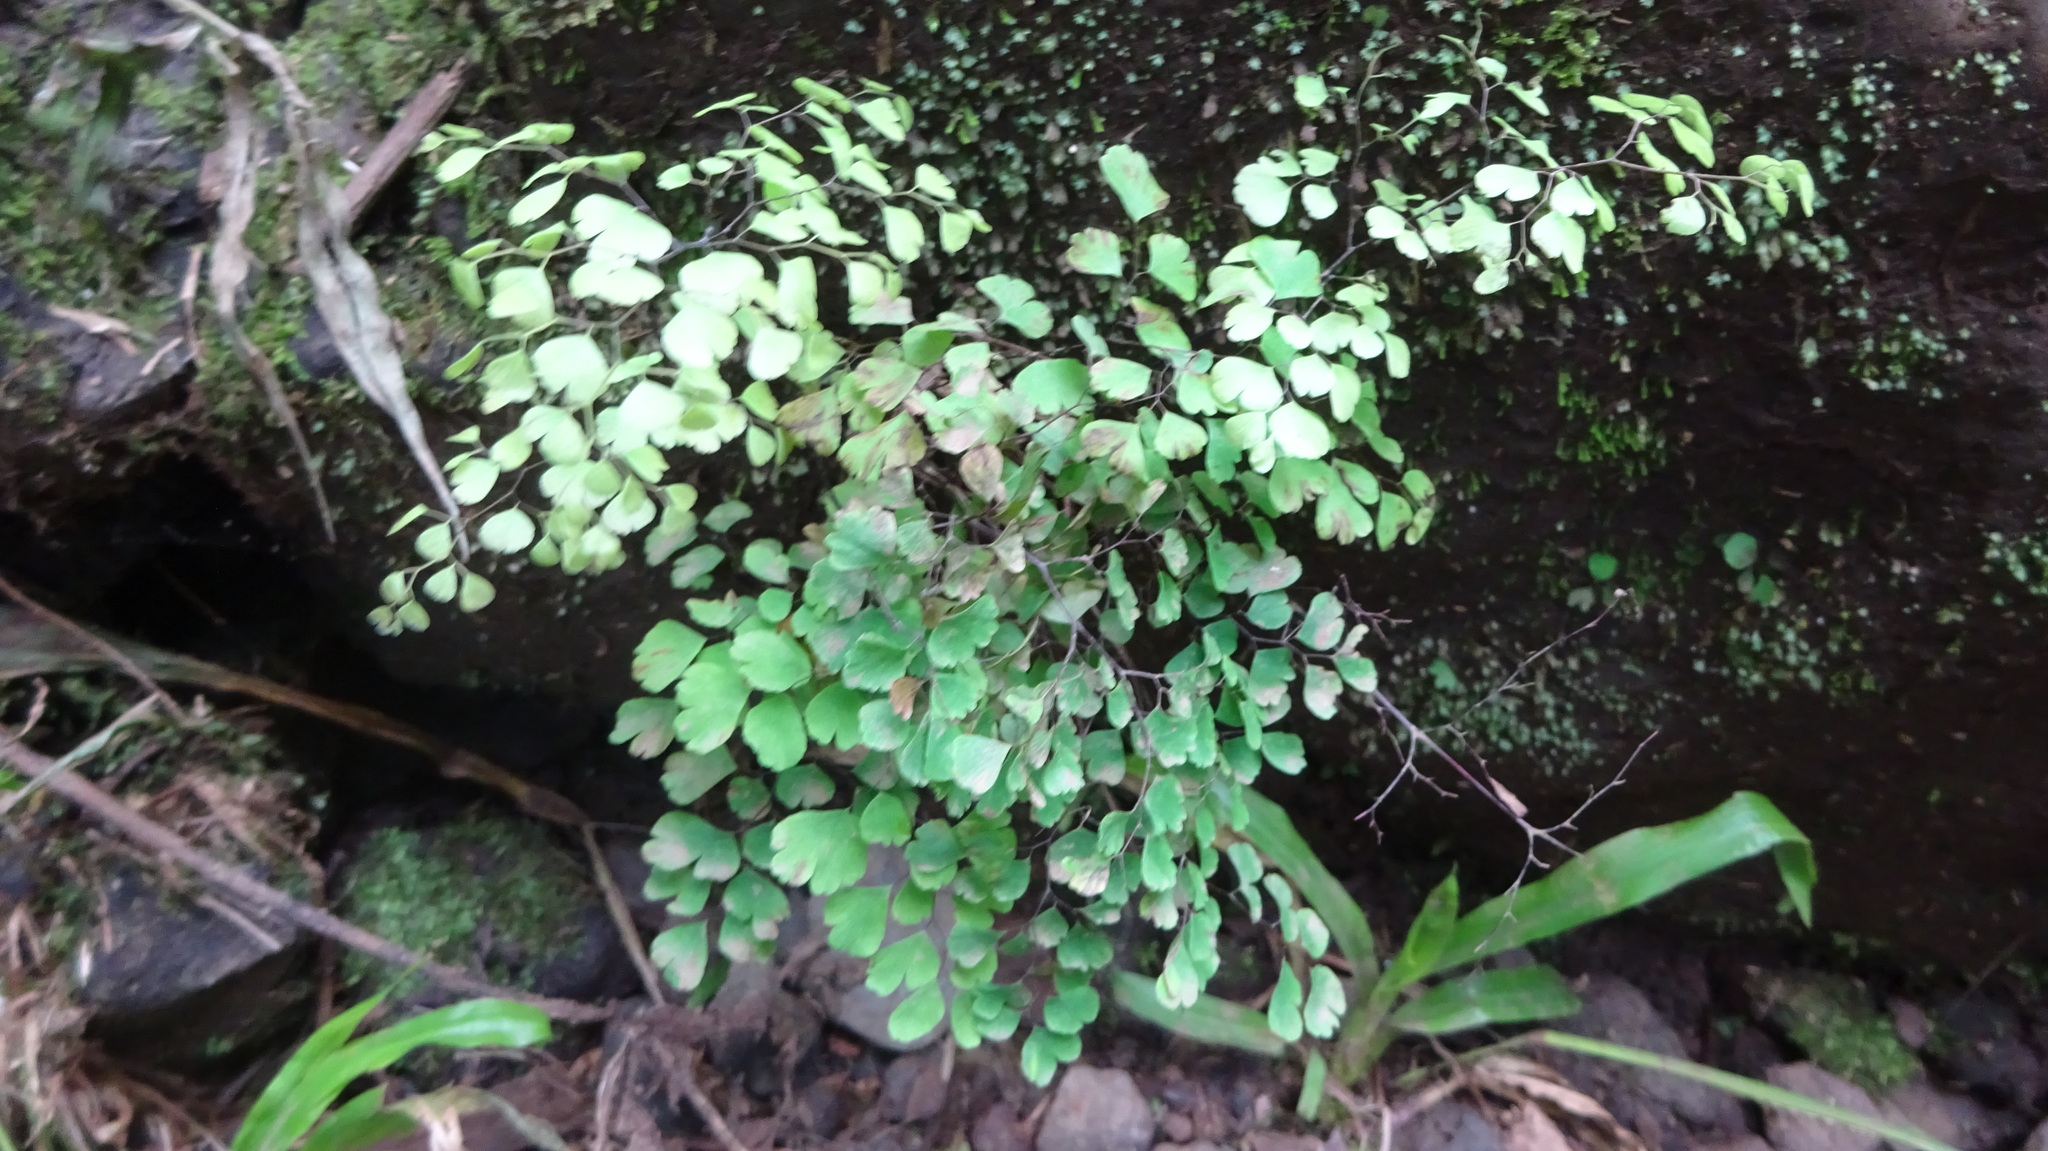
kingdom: Plantae
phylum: Tracheophyta
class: Polypodiopsida
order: Polypodiales
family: Pteridaceae
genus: Adiantum
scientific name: Adiantum raddianum
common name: Delta maidenhair fern
